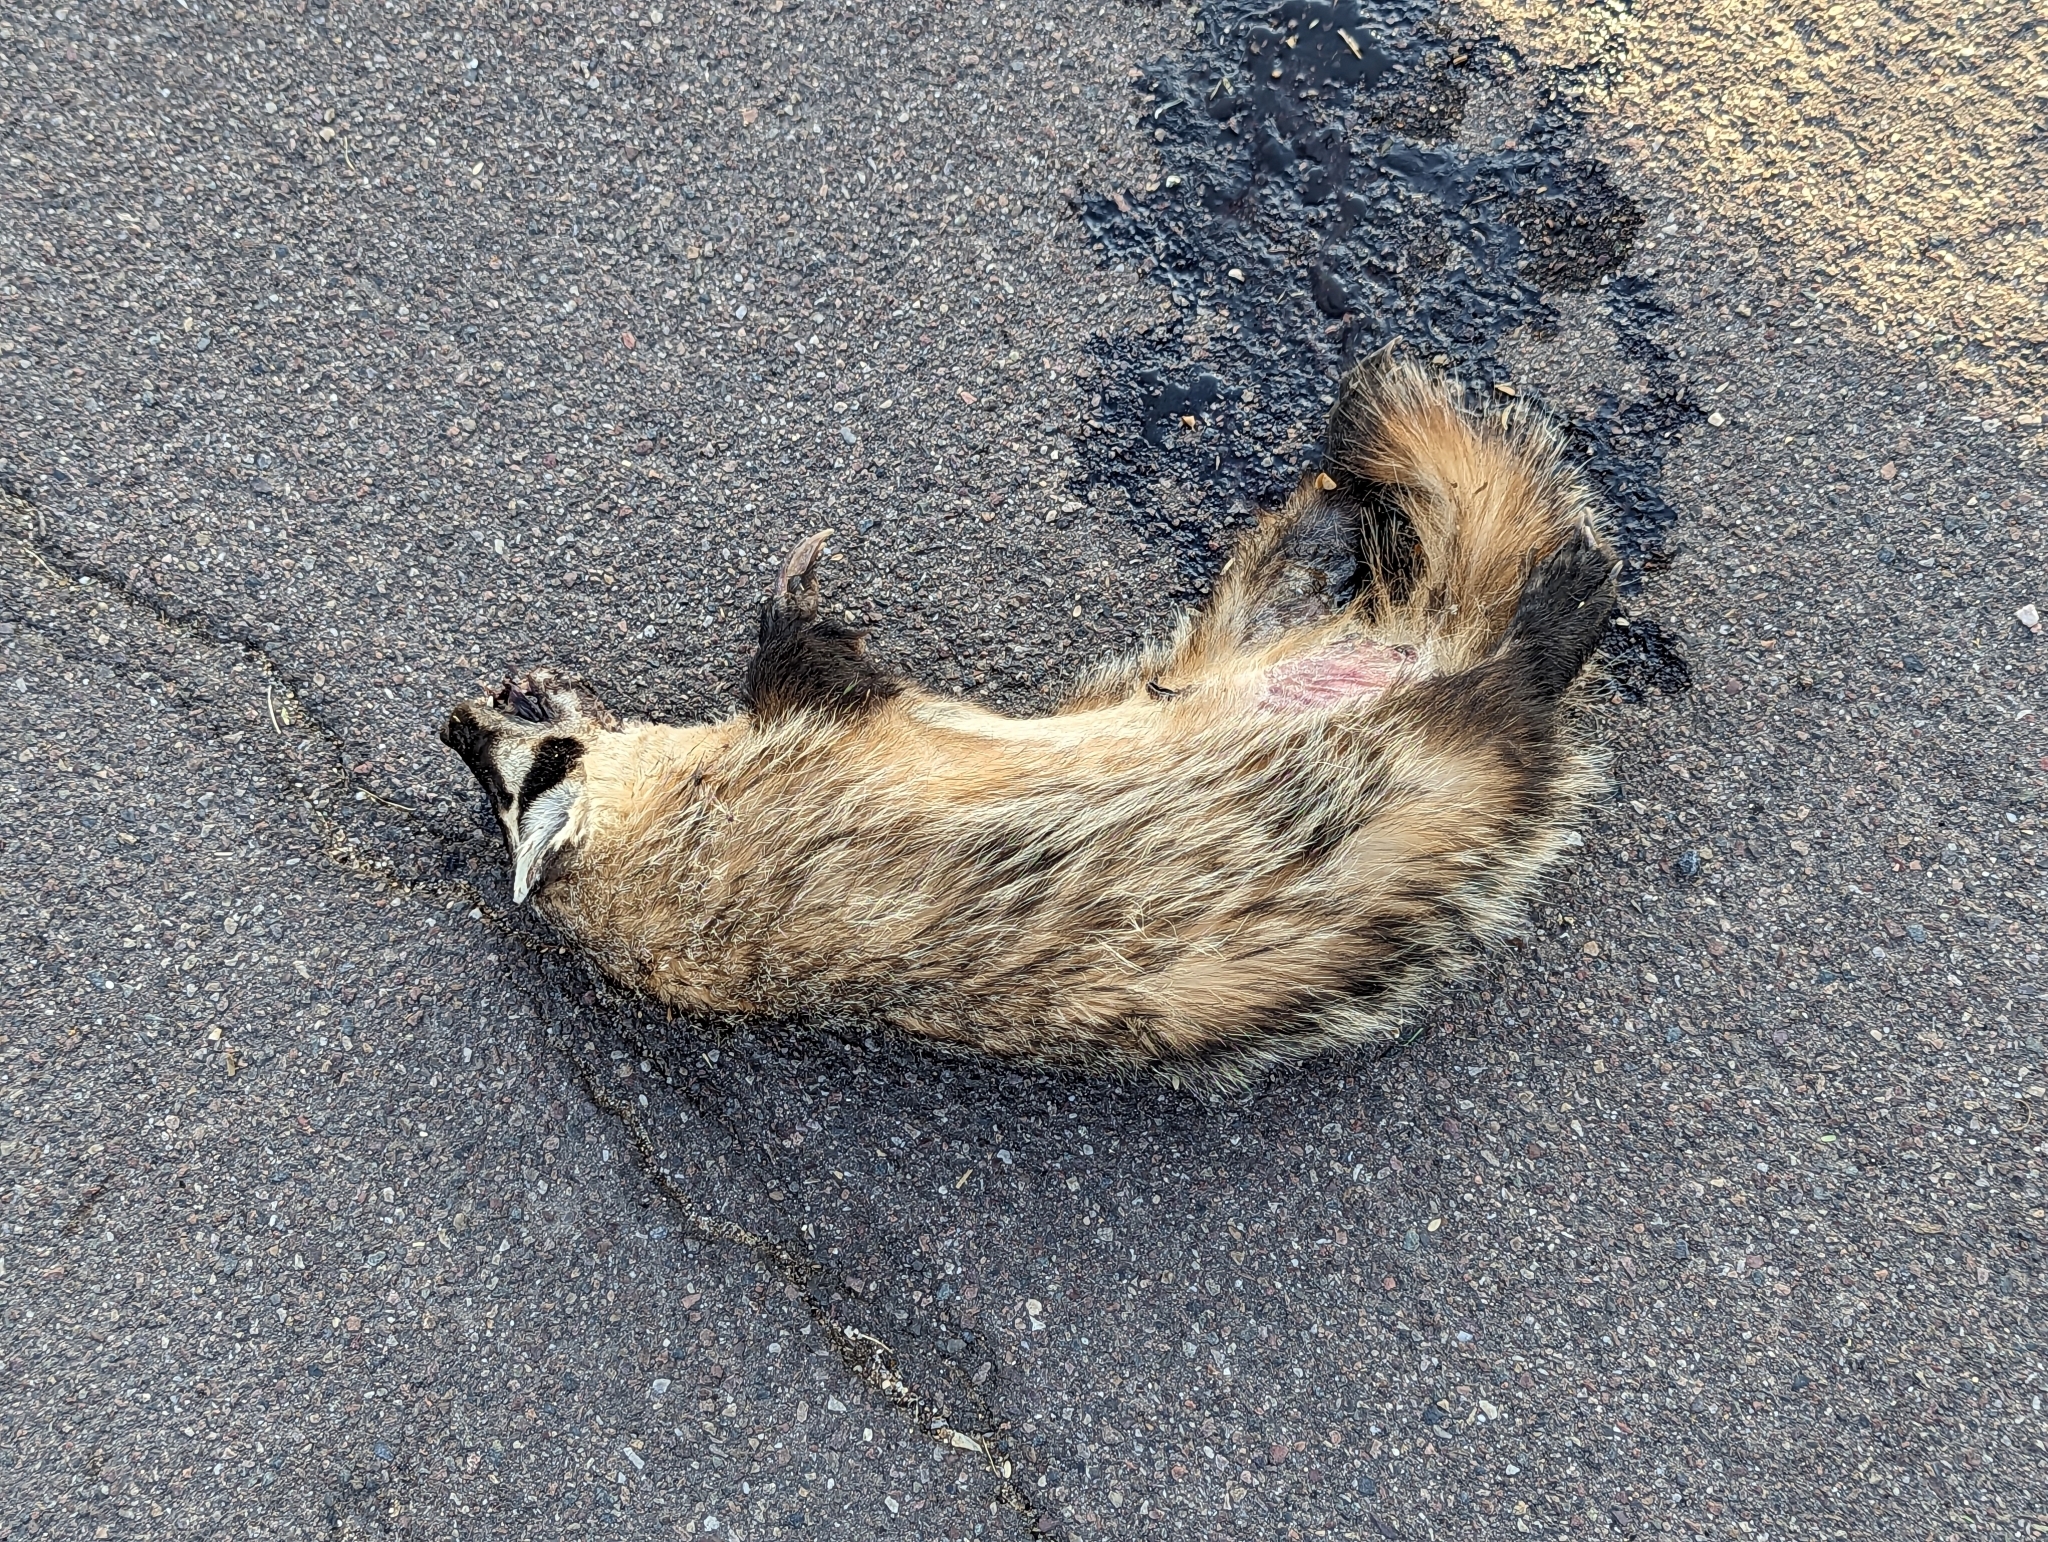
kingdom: Animalia
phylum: Chordata
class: Mammalia
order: Carnivora
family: Mustelidae
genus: Taxidea
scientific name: Taxidea taxus
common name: American badger
